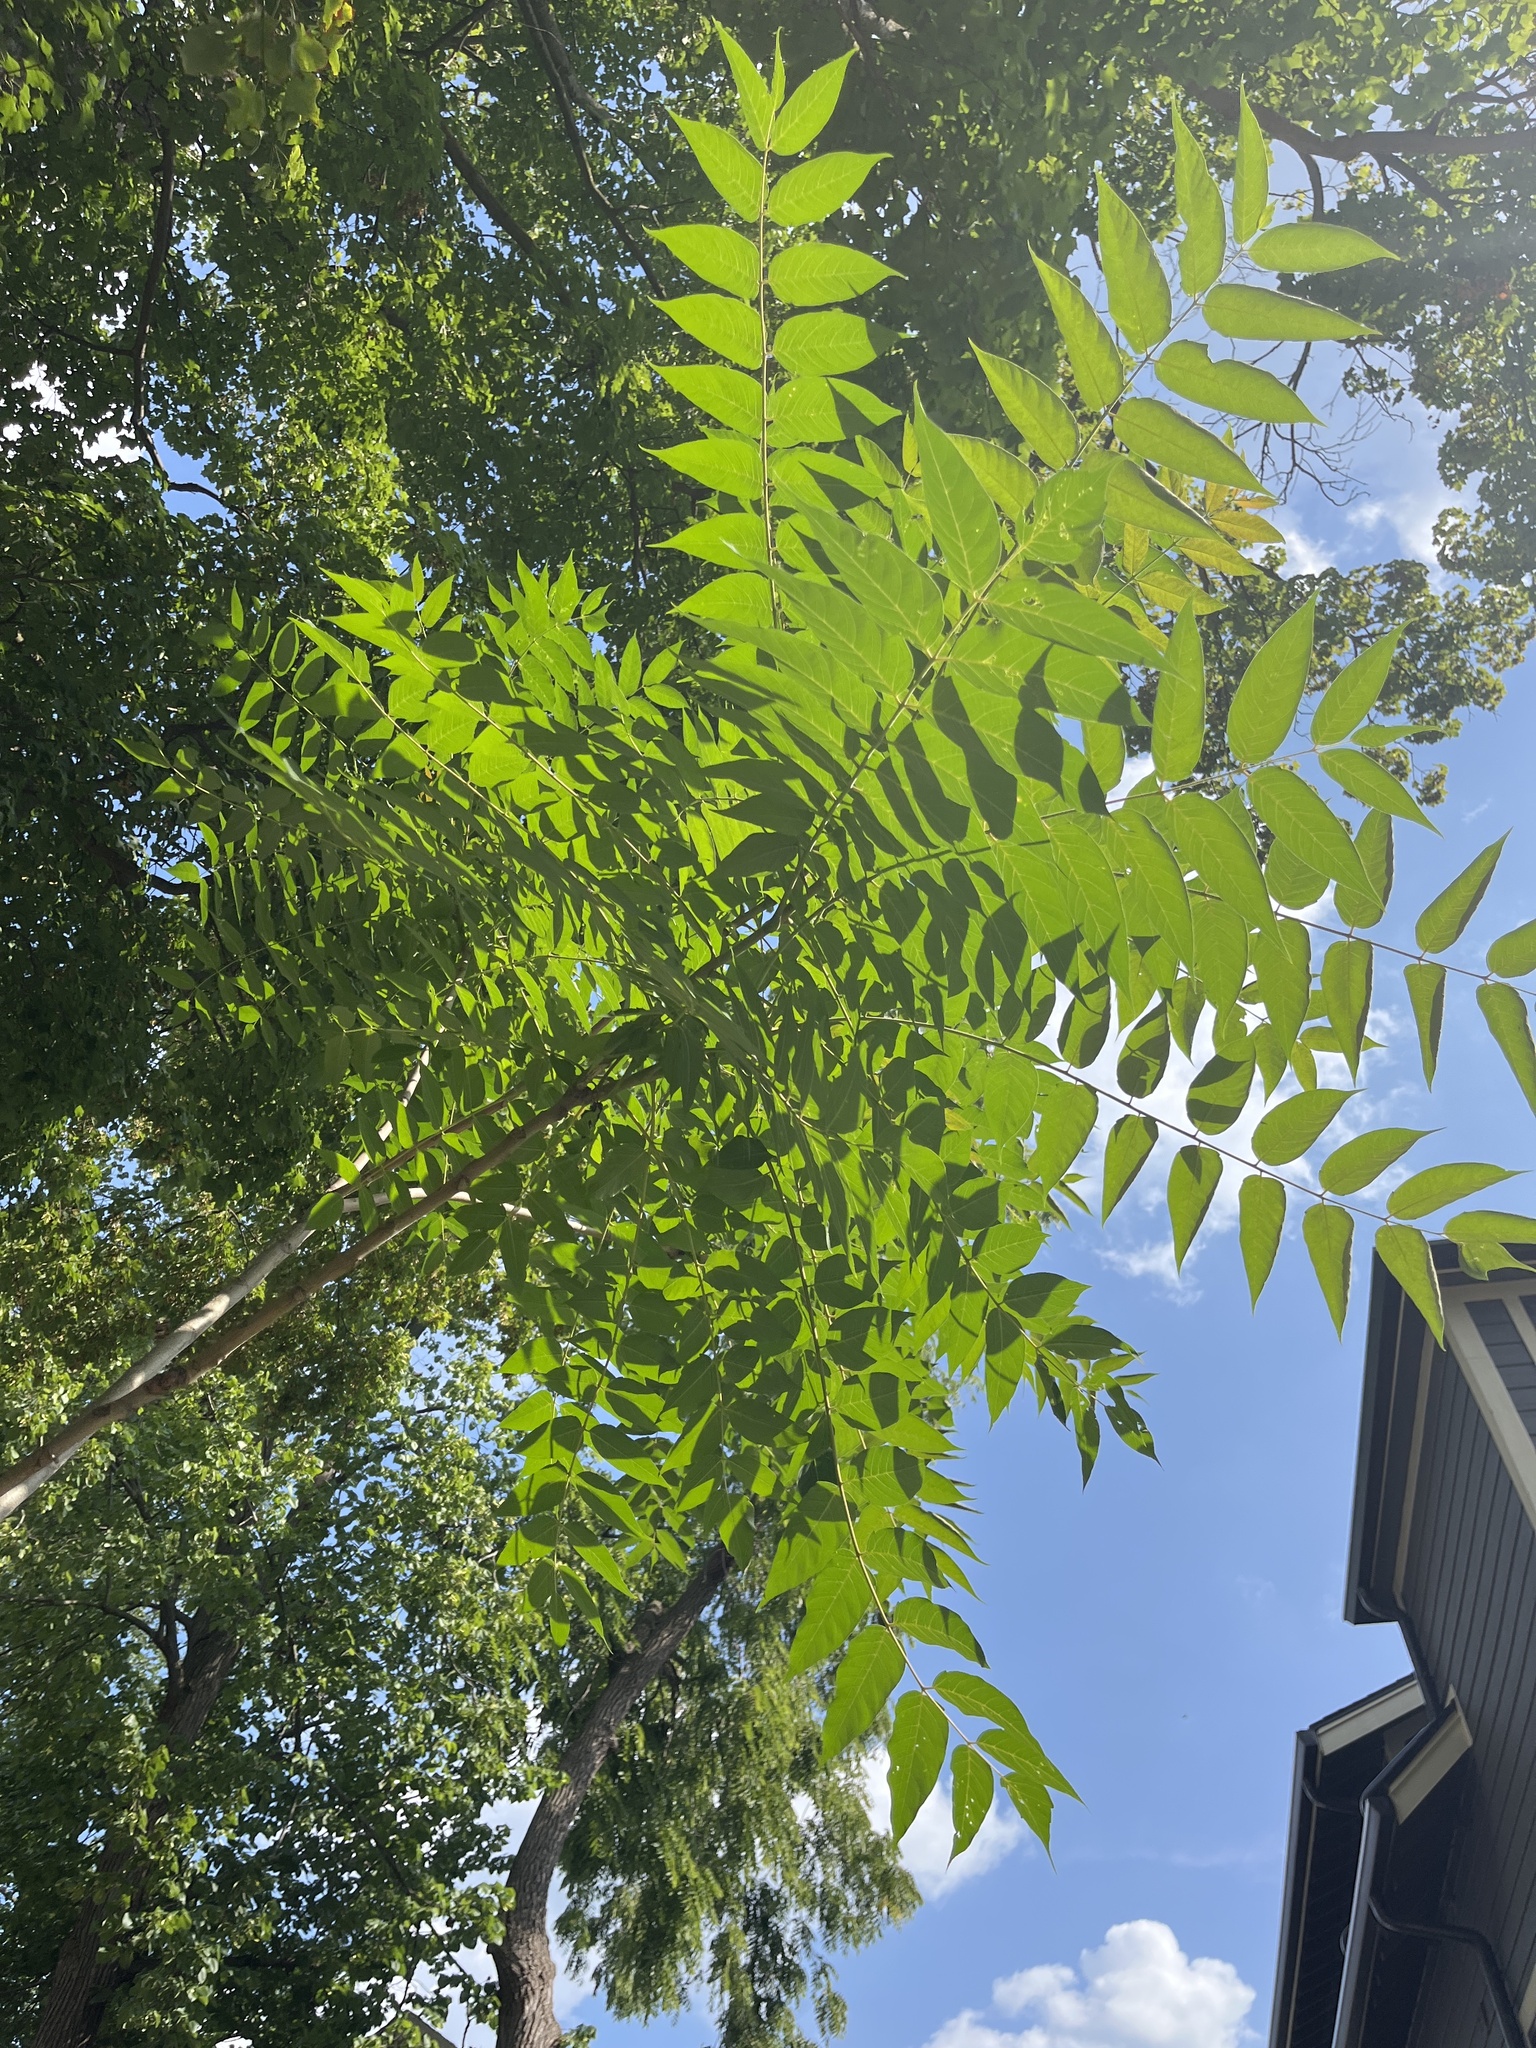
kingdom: Plantae
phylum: Tracheophyta
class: Magnoliopsida
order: Sapindales
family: Simaroubaceae
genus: Ailanthus
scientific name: Ailanthus altissima
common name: Tree-of-heaven
